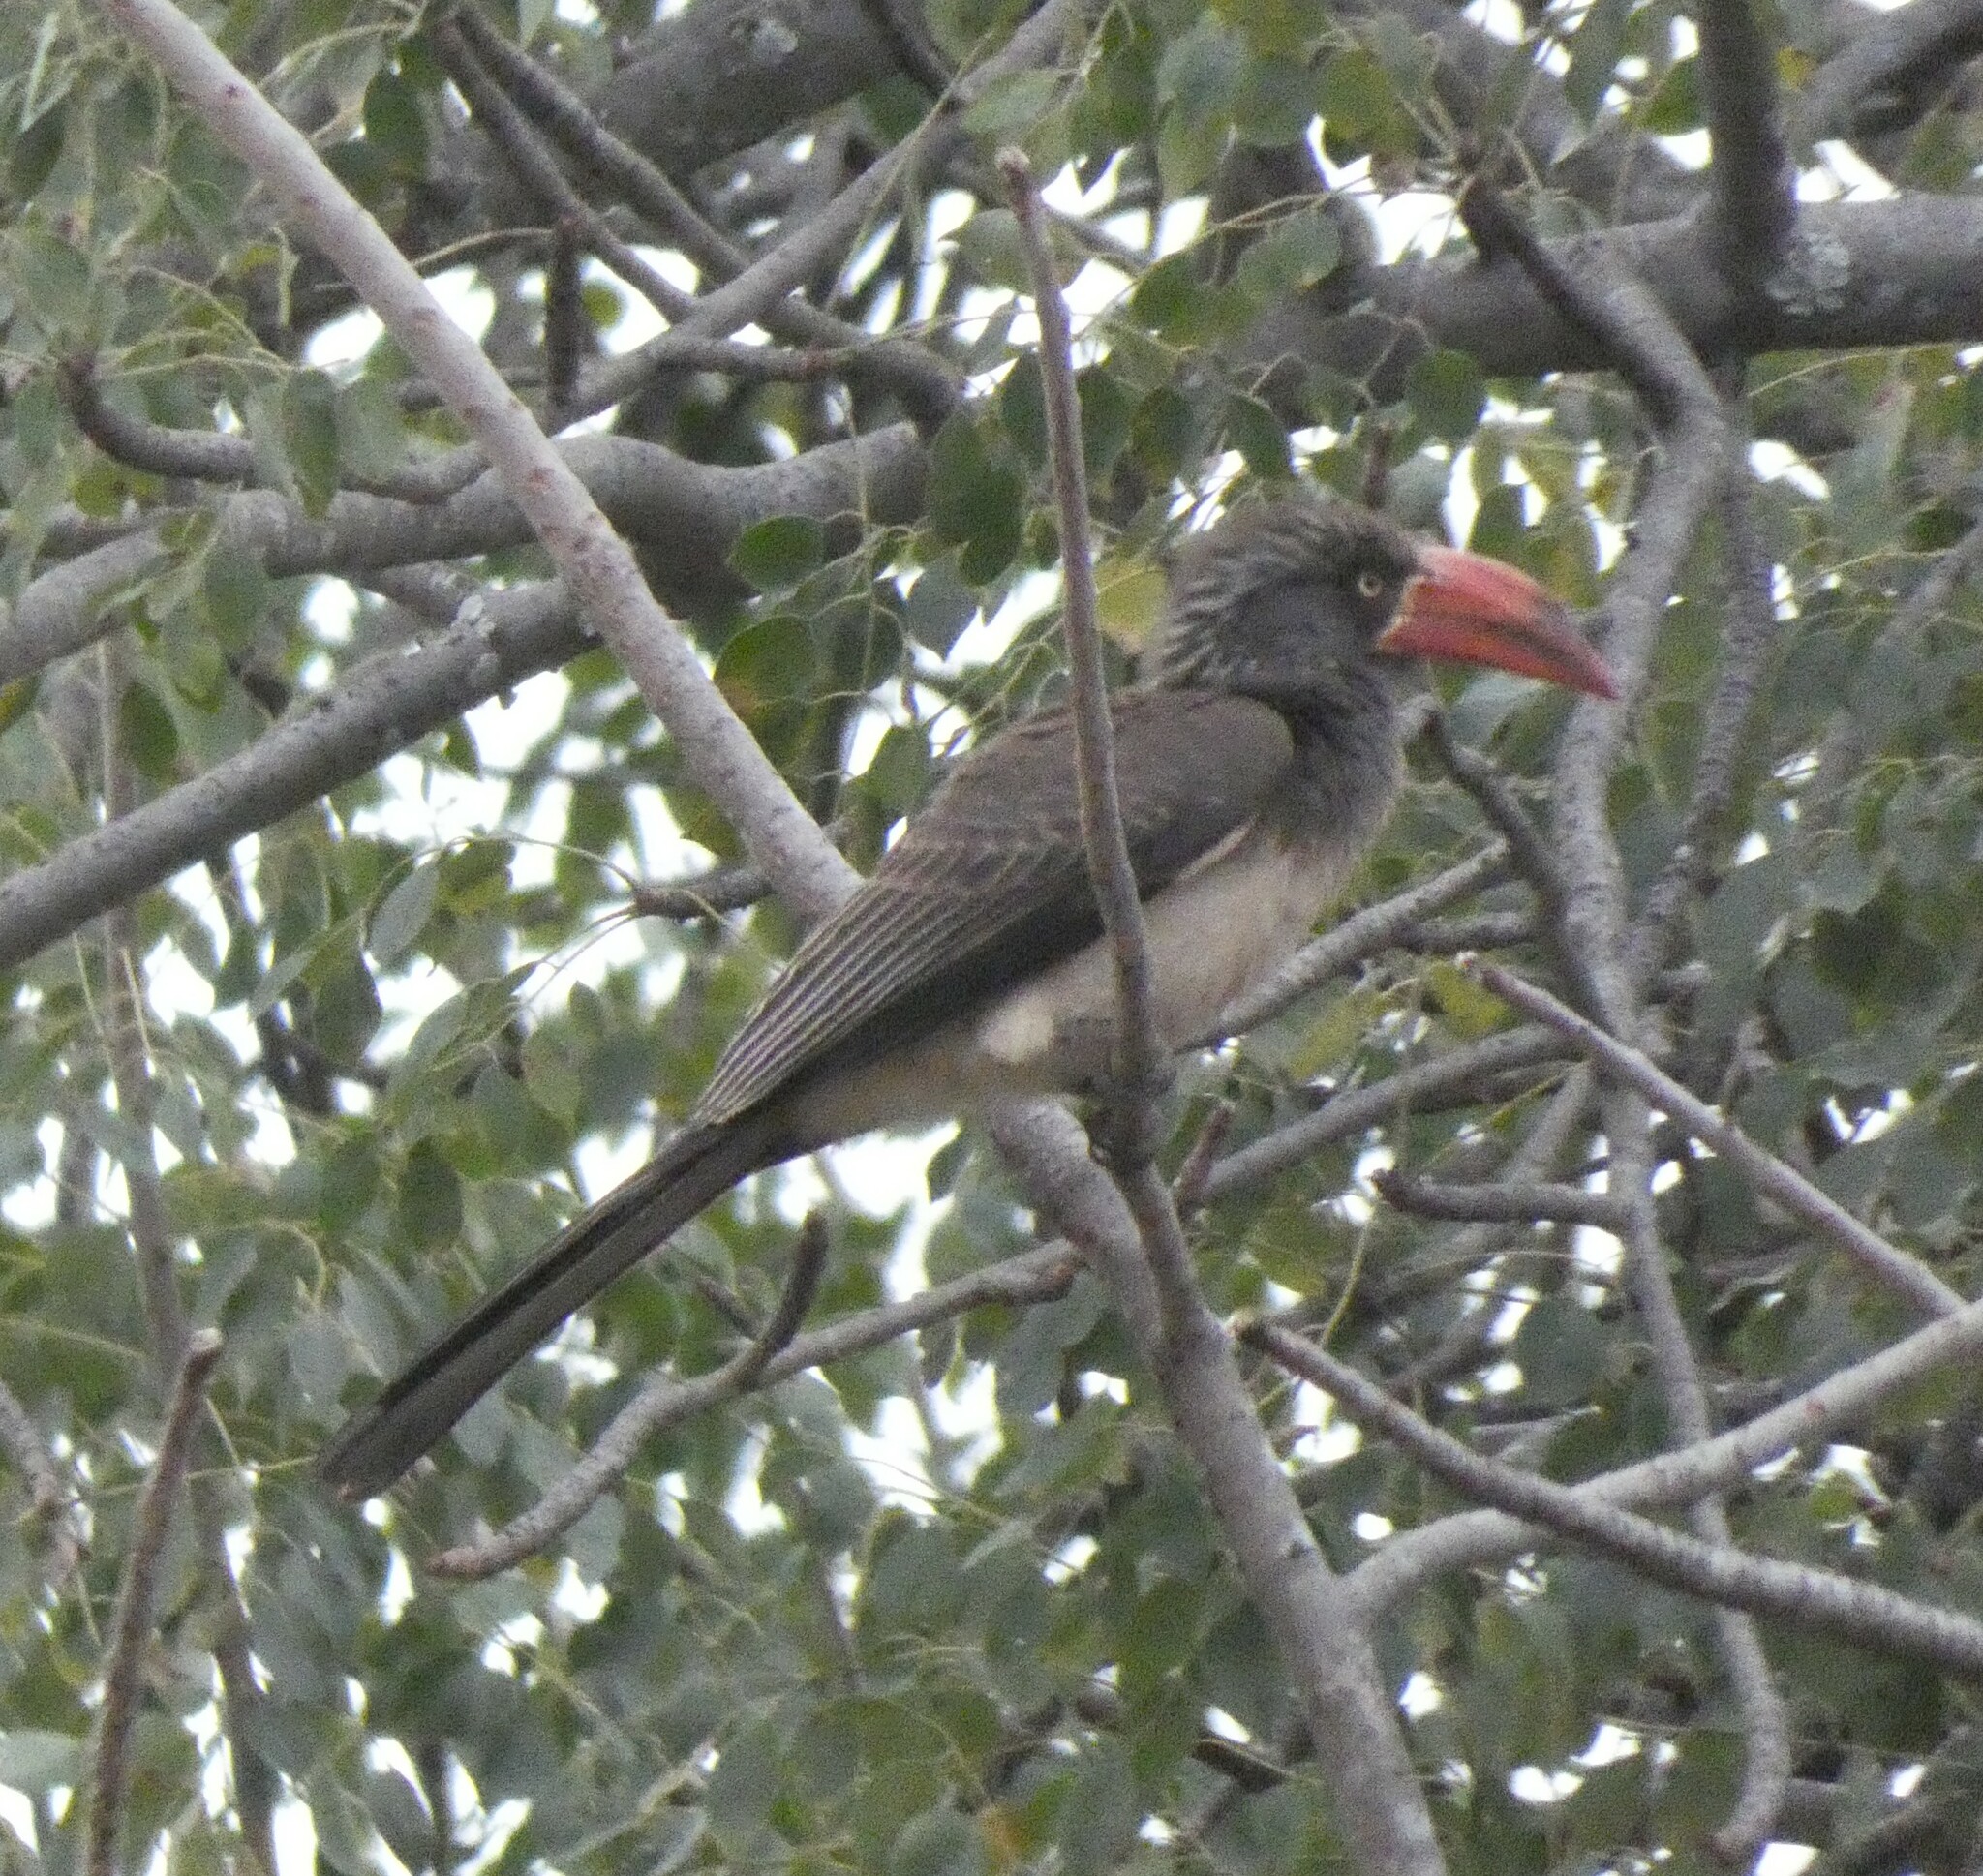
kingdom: Animalia
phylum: Chordata
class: Aves
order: Bucerotiformes
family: Bucerotidae
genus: Lophoceros
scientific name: Lophoceros alboterminatus
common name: Crowned hornbill
